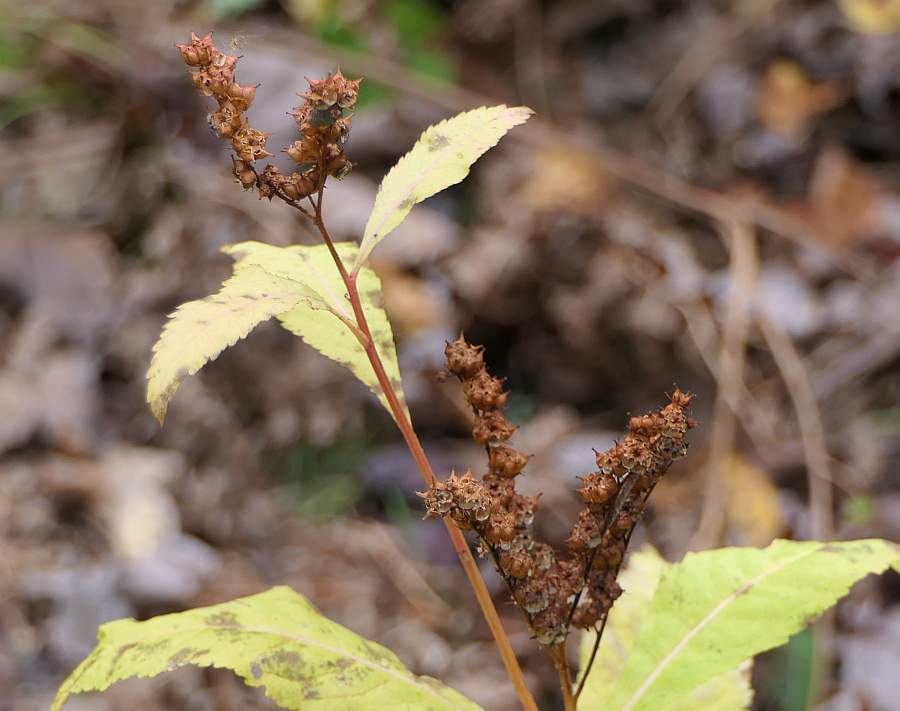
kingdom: Plantae
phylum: Tracheophyta
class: Magnoliopsida
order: Saxifragales
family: Penthoraceae
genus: Penthorum
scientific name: Penthorum sedoides
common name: Ditch stonecrop
